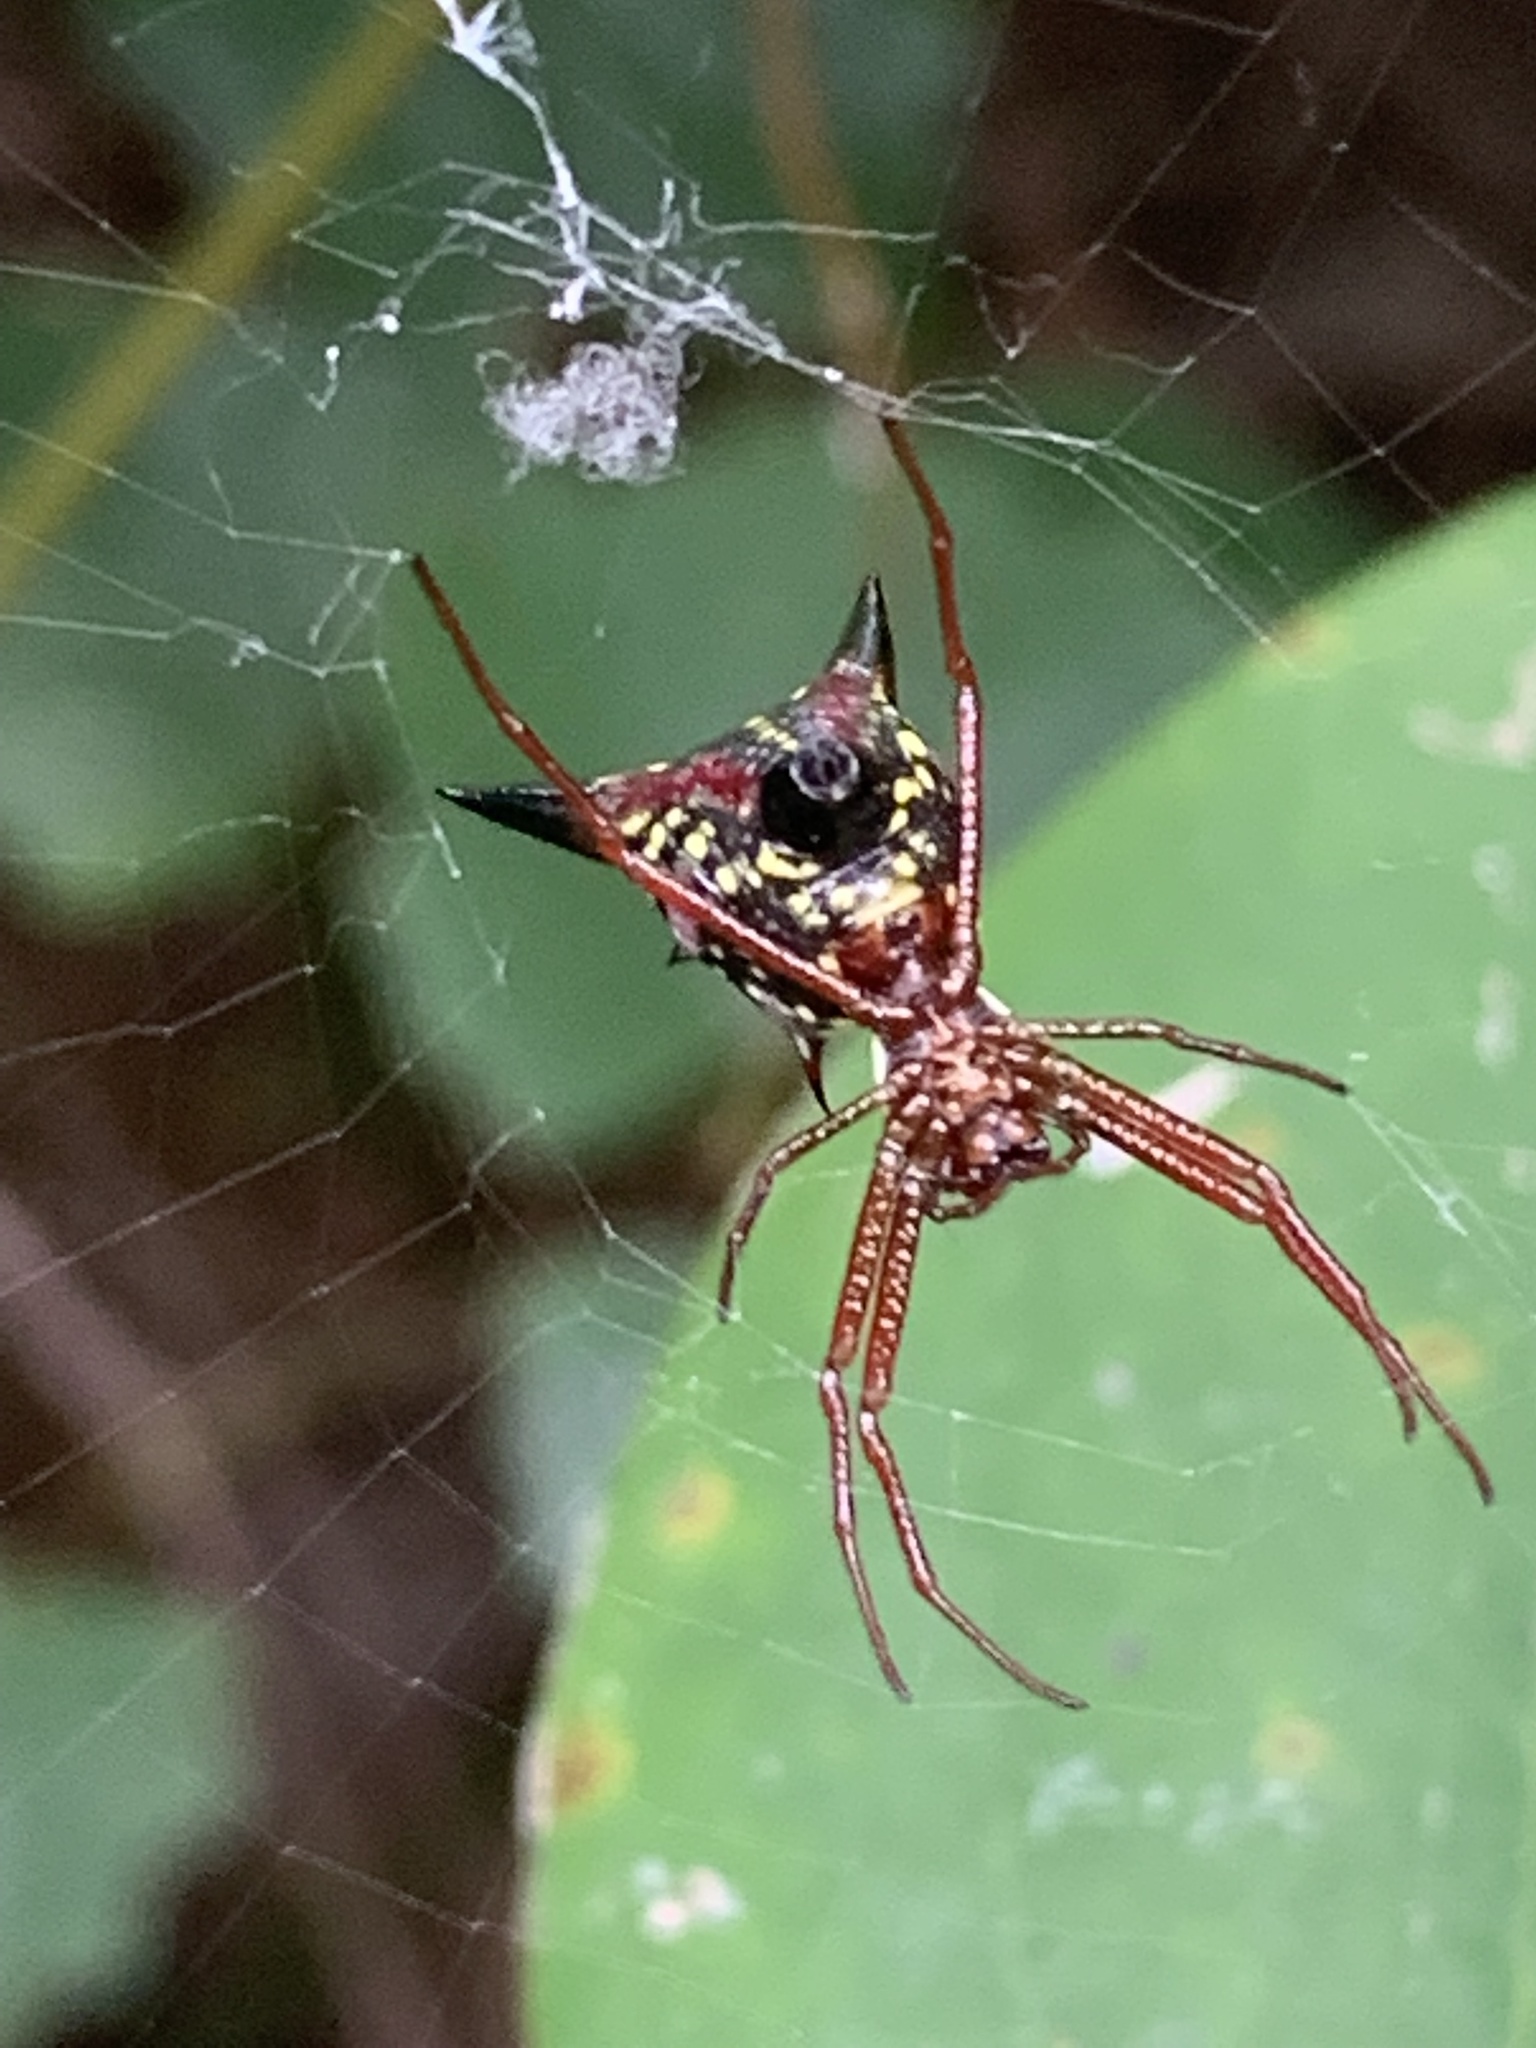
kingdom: Animalia
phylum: Arthropoda
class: Arachnida
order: Araneae
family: Araneidae
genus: Micrathena
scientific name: Micrathena sagittata
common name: Orb weavers
